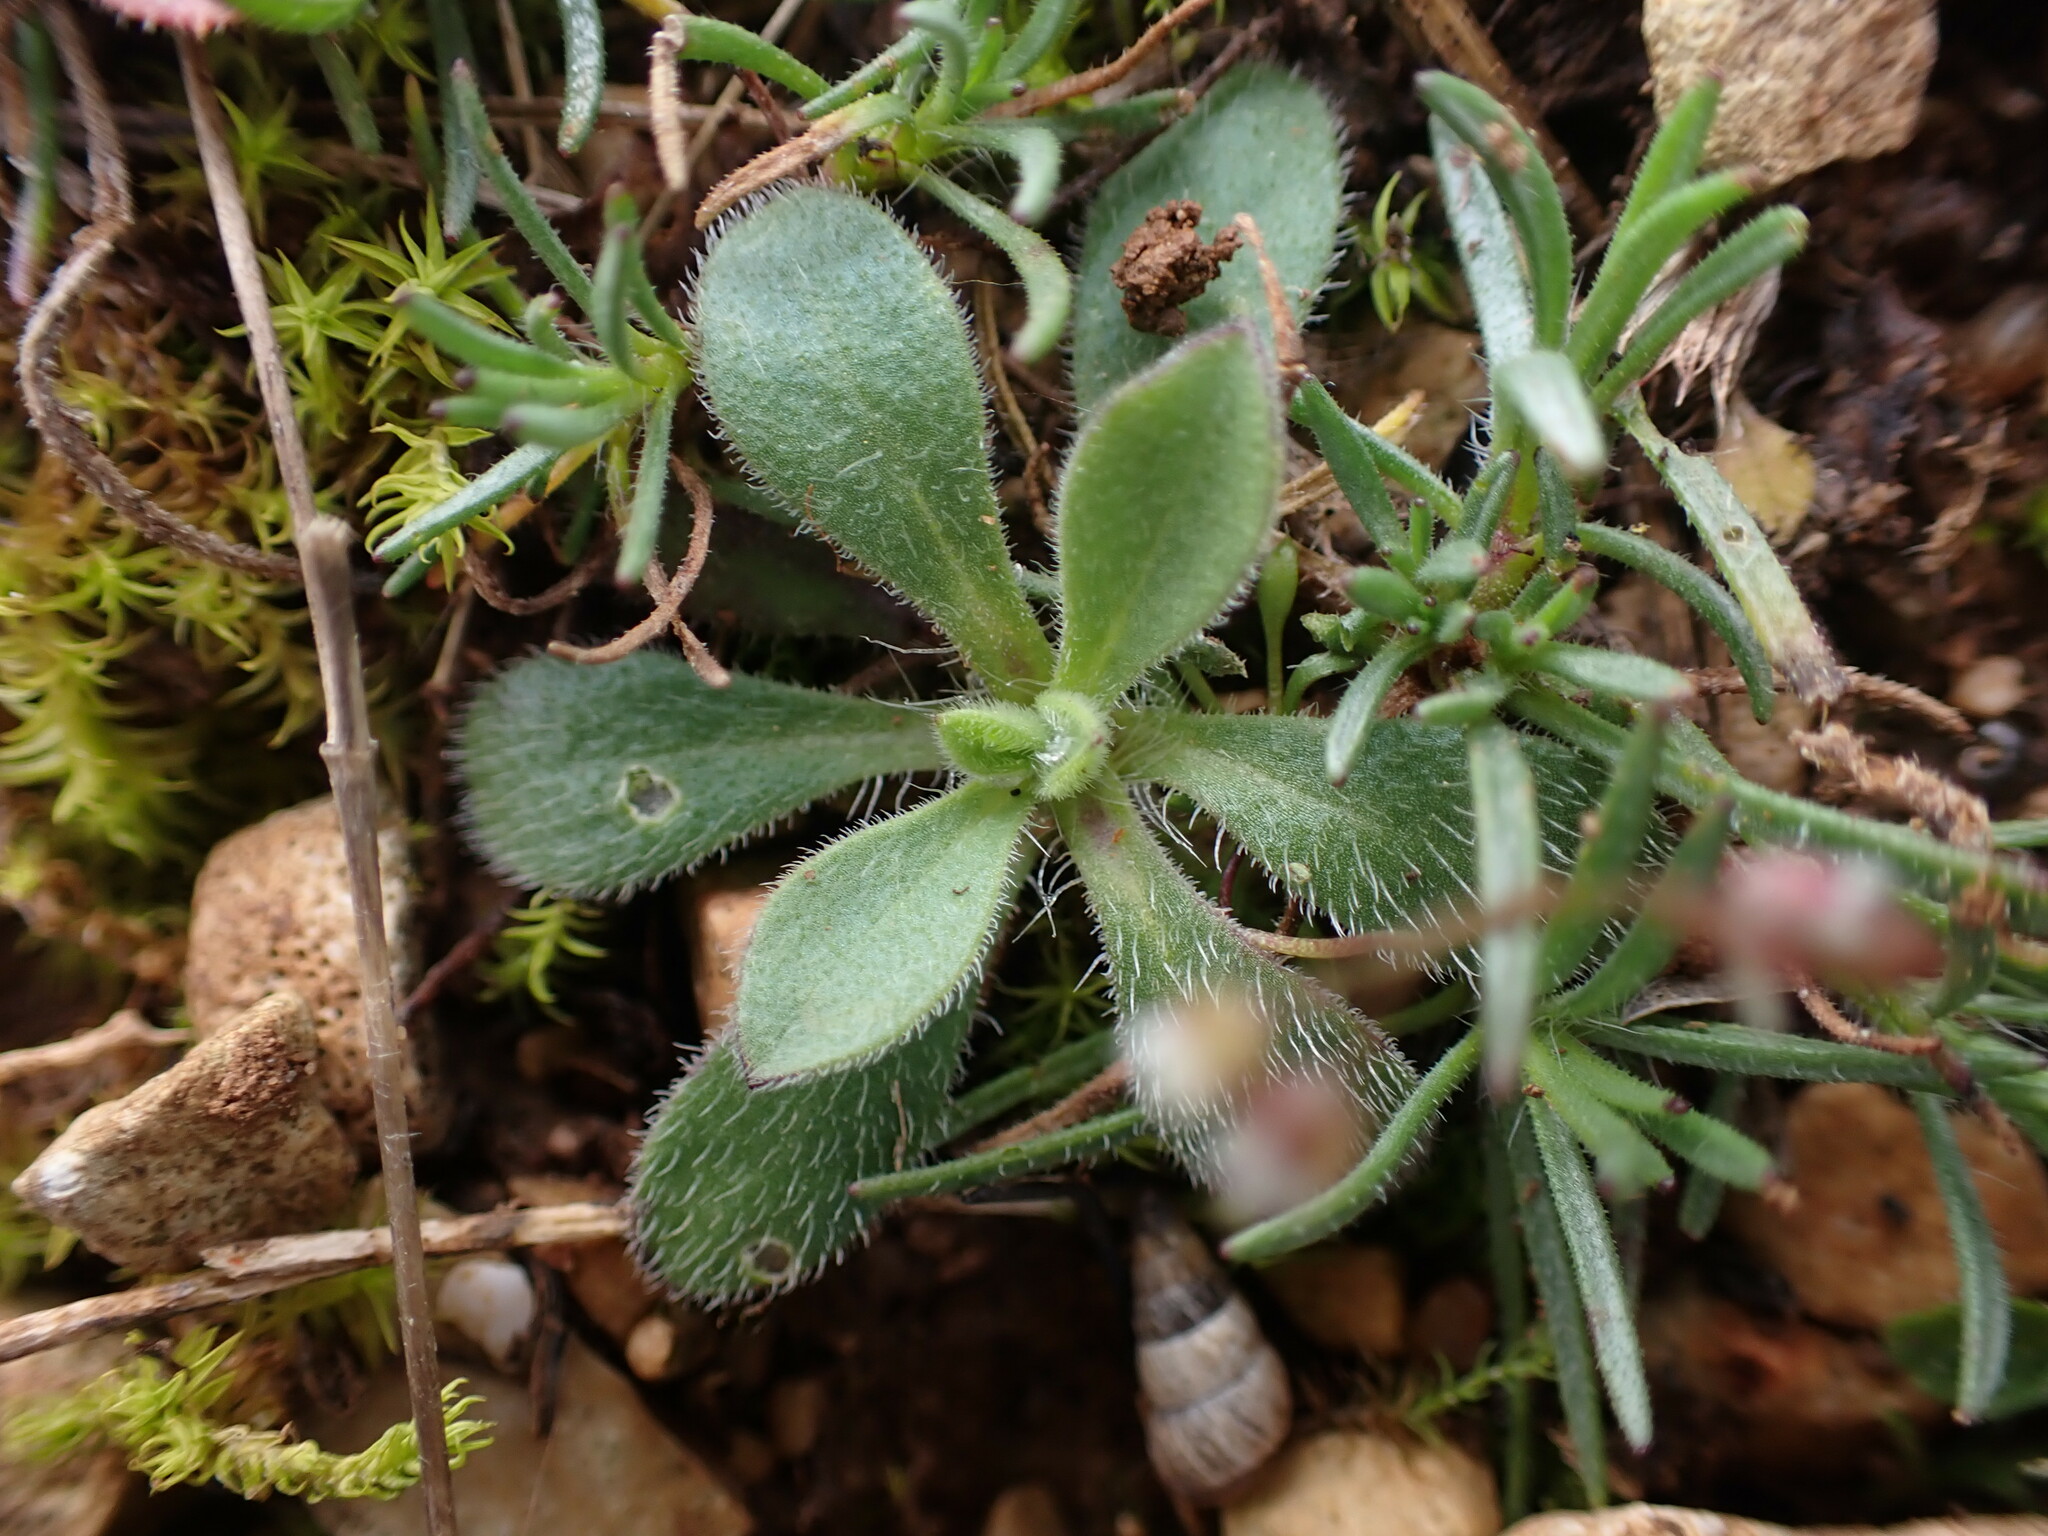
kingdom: Plantae
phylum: Tracheophyta
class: Magnoliopsida
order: Caryophyllales
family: Caryophyllaceae
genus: Silene
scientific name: Silene nocturna
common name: Mediterranean catchfly
